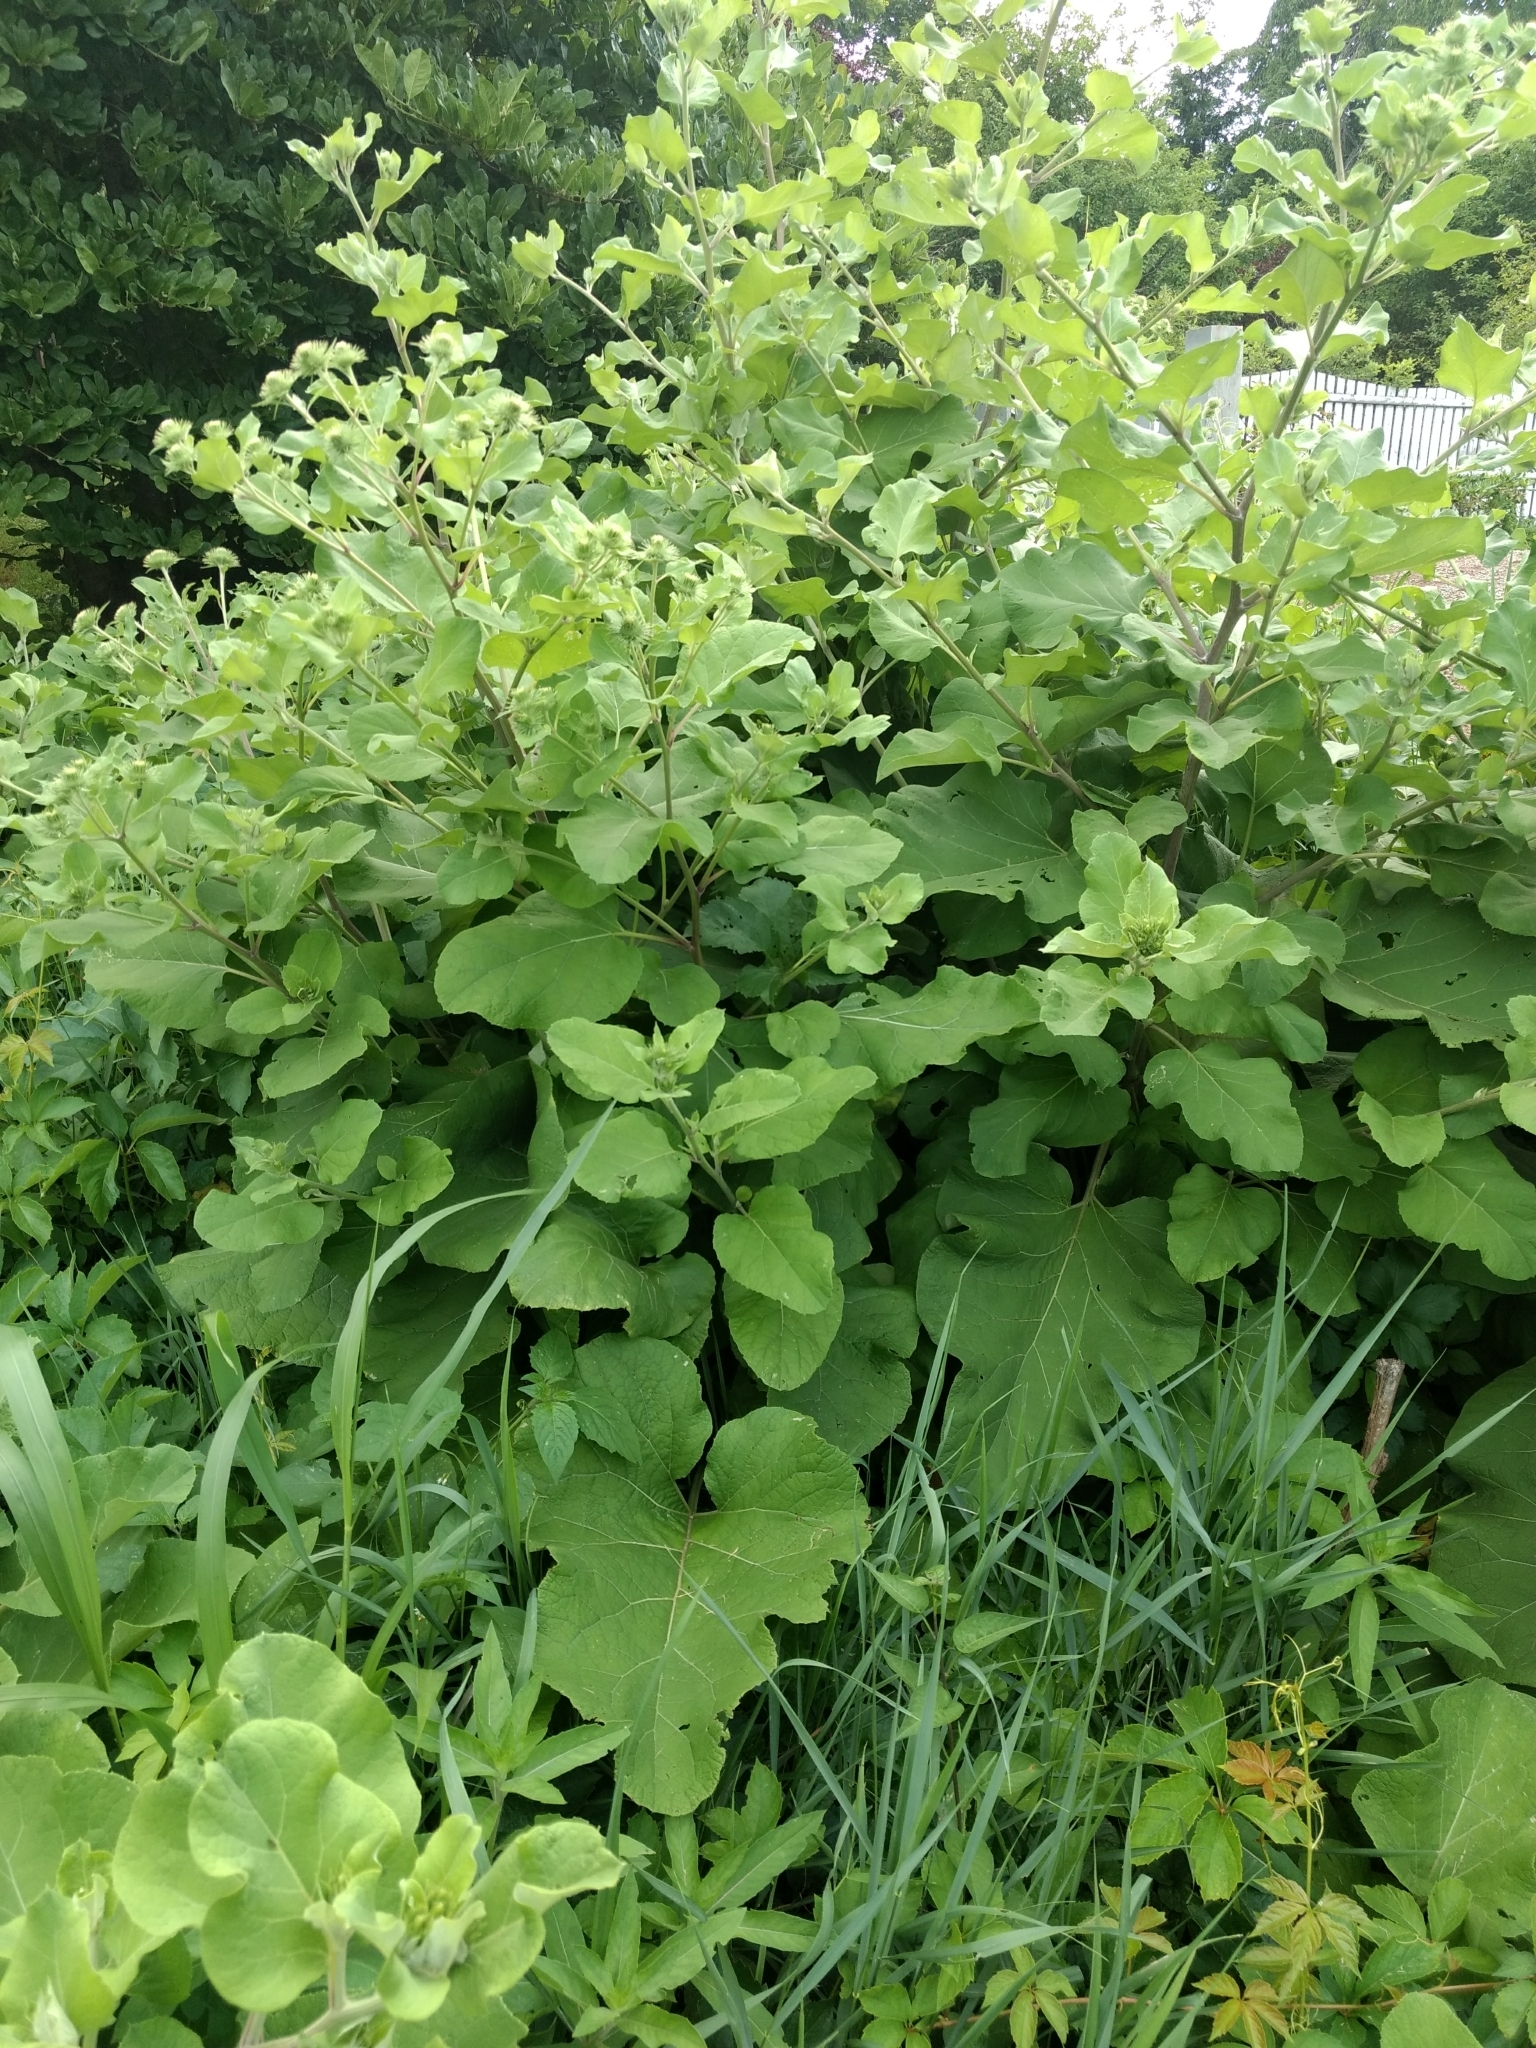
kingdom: Plantae
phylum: Tracheophyta
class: Magnoliopsida
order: Asterales
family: Asteraceae
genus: Arctium
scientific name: Arctium lappa
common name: Greater burdock
